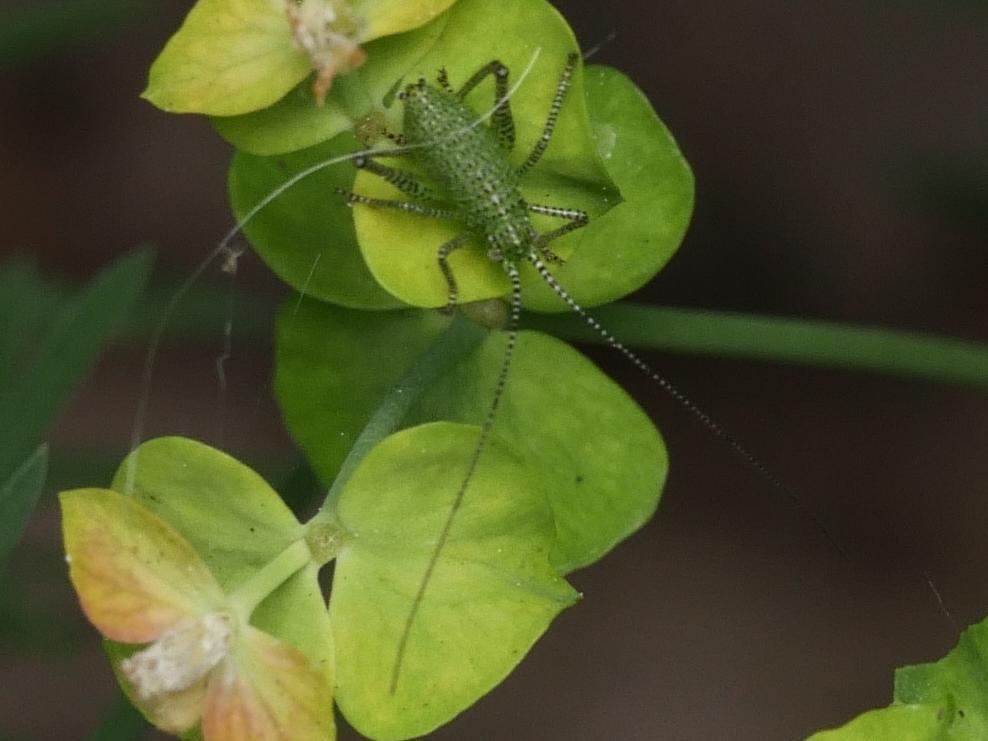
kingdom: Animalia
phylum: Arthropoda
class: Insecta
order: Orthoptera
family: Tettigoniidae
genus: Leptophyes
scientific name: Leptophyes punctatissima
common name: Speckled bush-cricket
